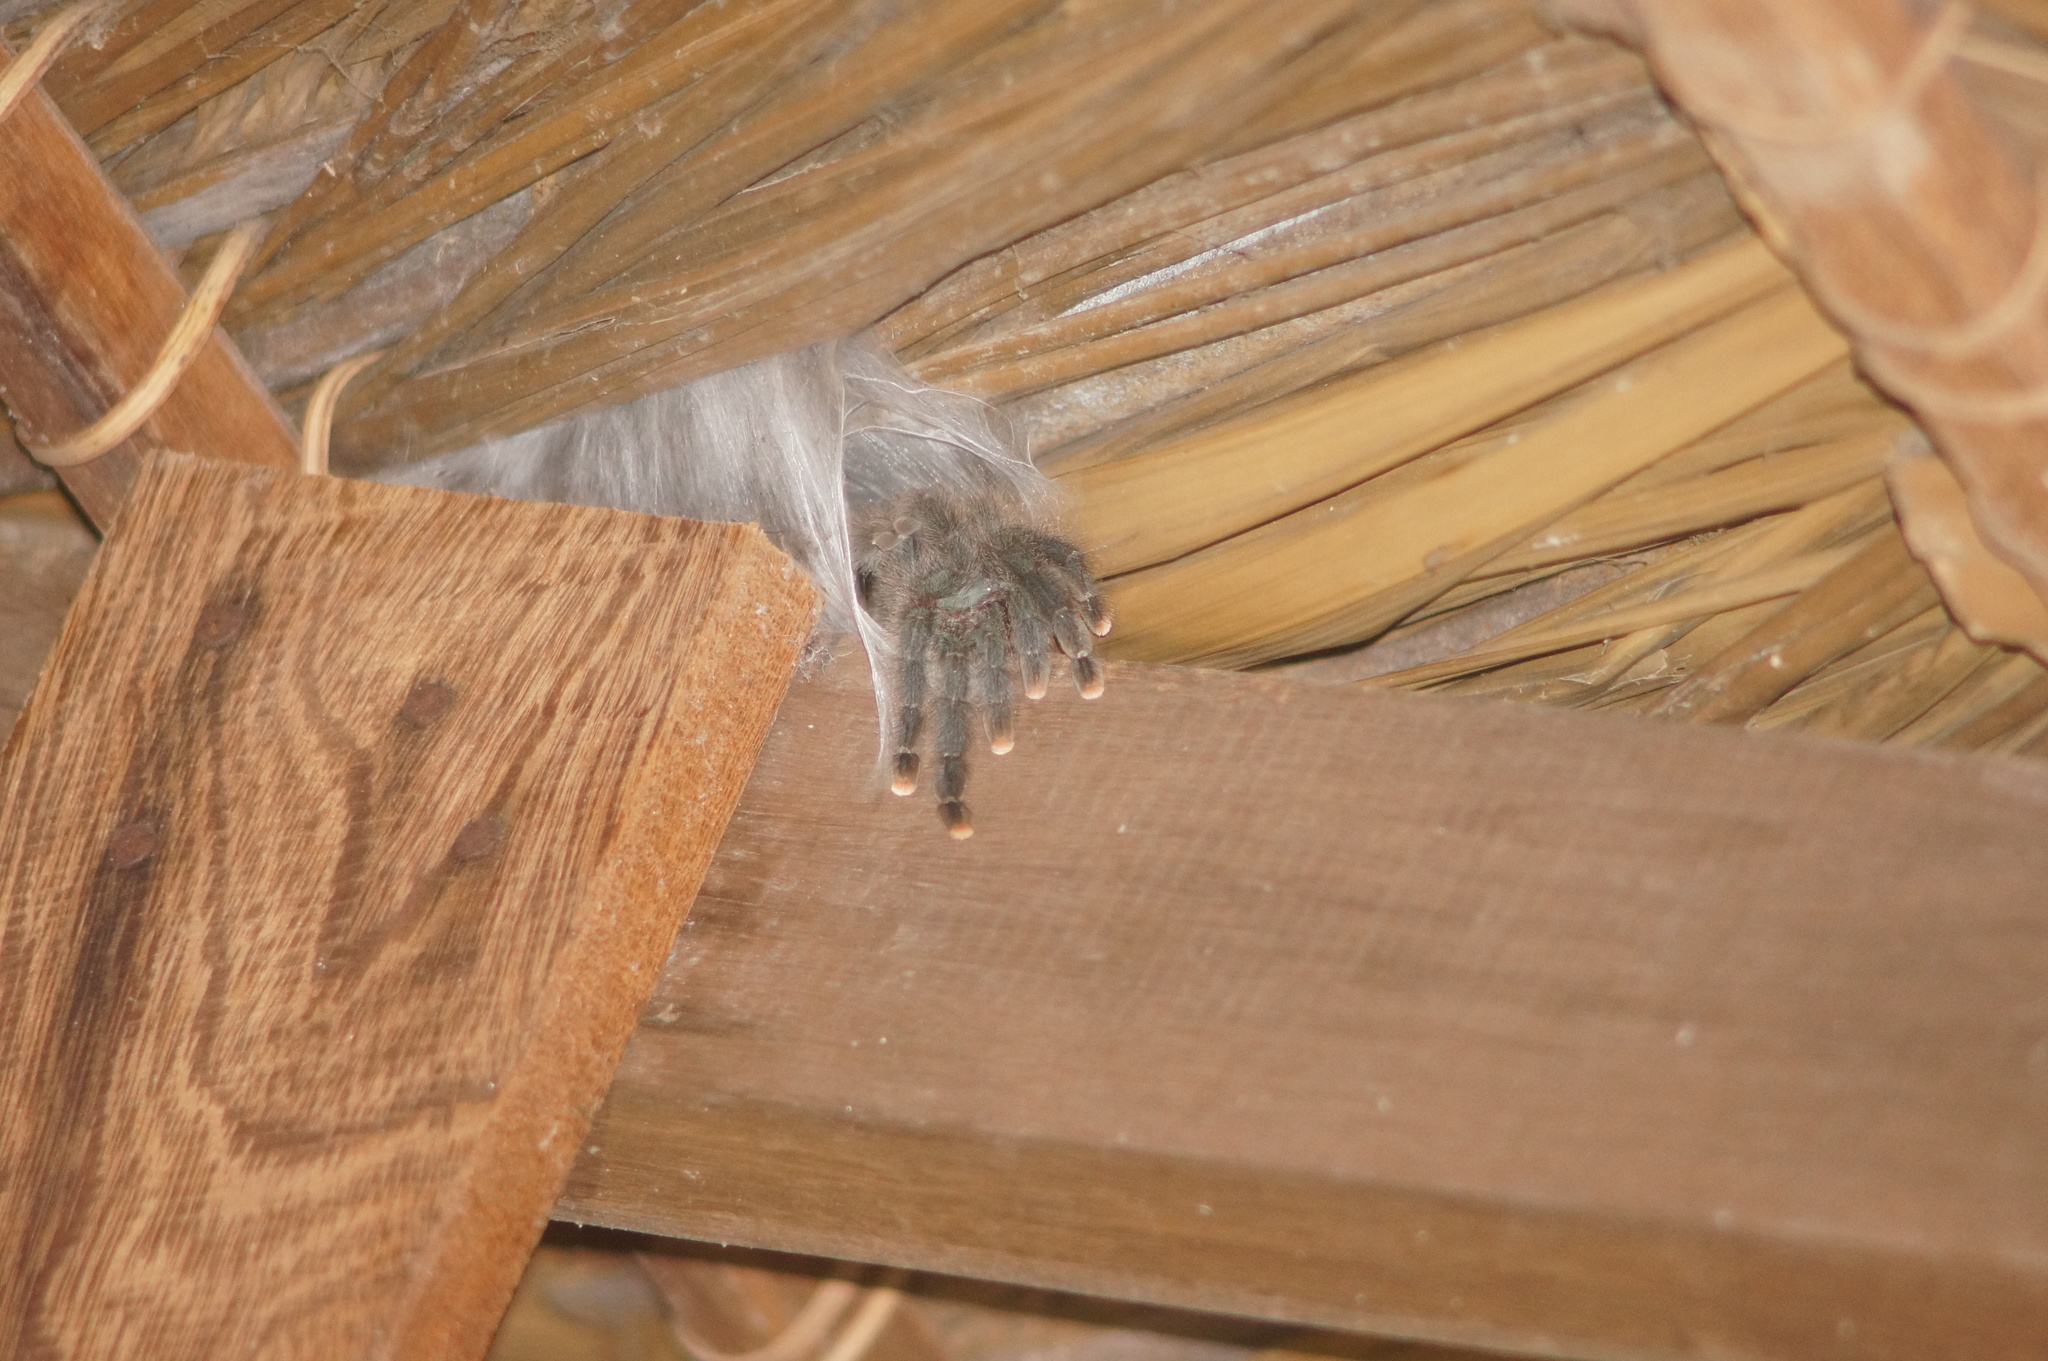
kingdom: Animalia
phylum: Arthropoda
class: Arachnida
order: Araneae
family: Theraphosidae
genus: Avicularia
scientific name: Avicularia avicularia
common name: Tarantula spiders
